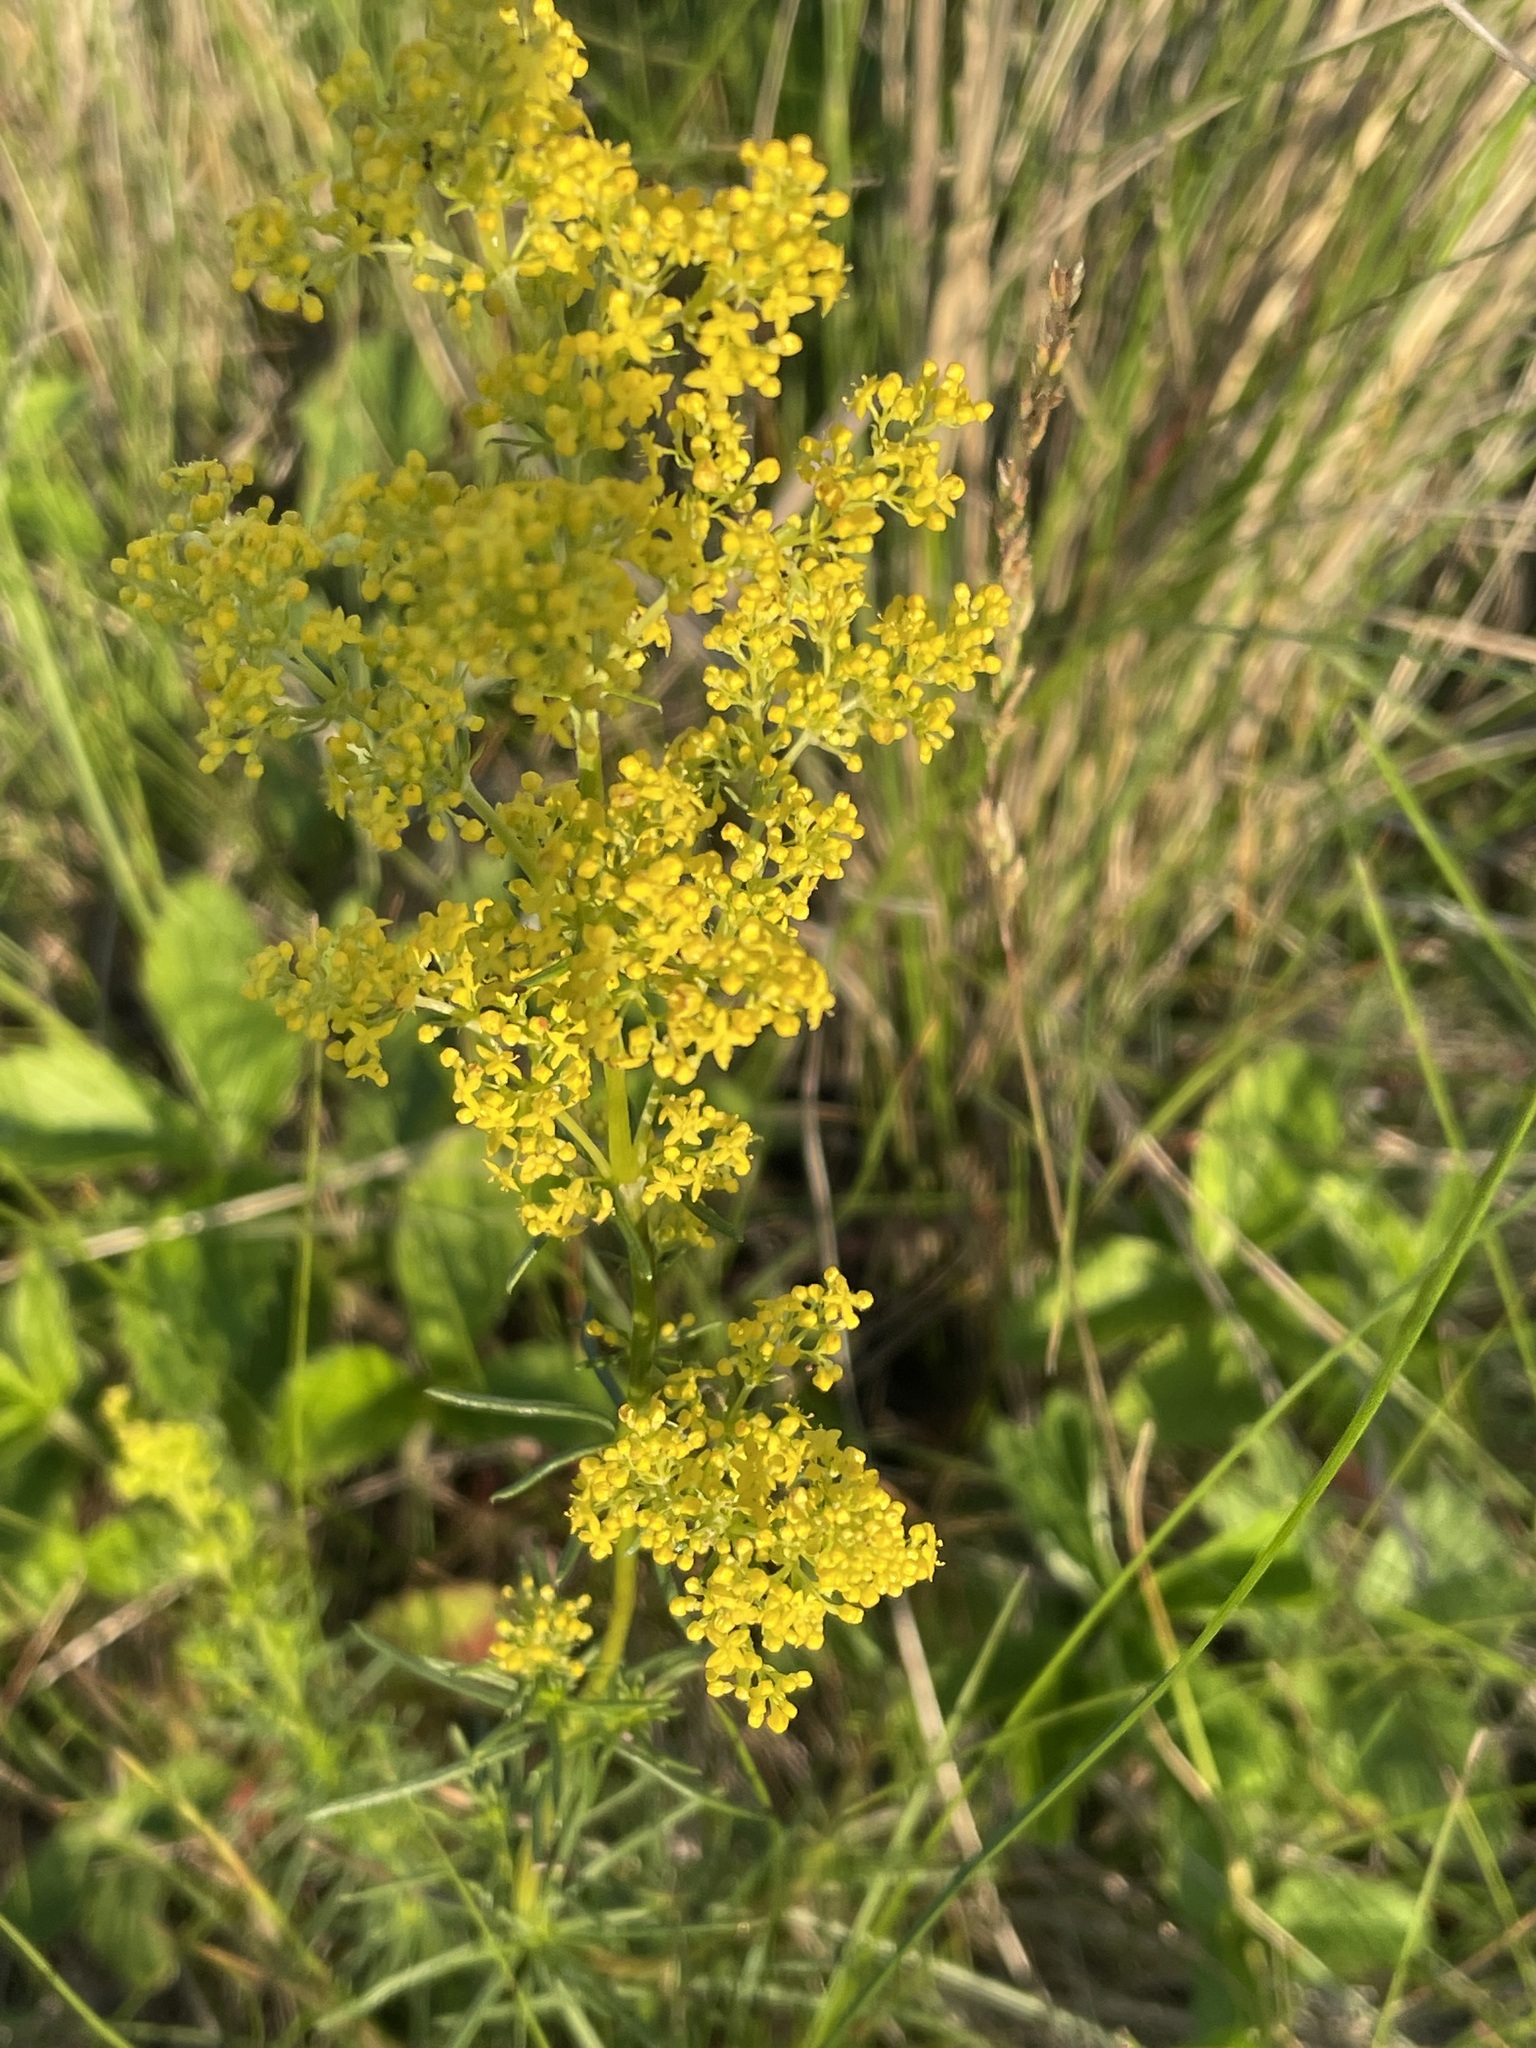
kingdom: Plantae
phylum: Tracheophyta
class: Magnoliopsida
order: Gentianales
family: Rubiaceae
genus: Galium
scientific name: Galium verum
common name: Lady's bedstraw
